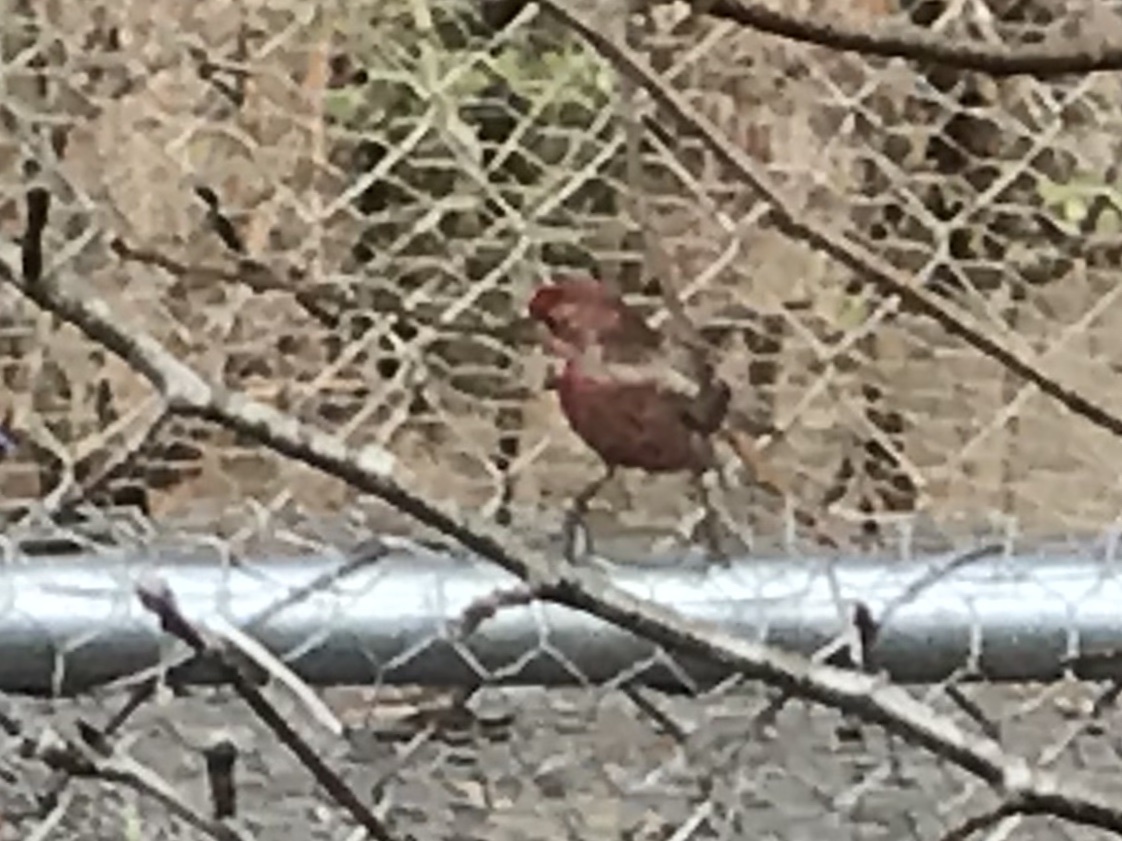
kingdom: Animalia
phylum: Chordata
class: Aves
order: Passeriformes
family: Fringillidae
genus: Haemorhous
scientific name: Haemorhous mexicanus
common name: House finch
